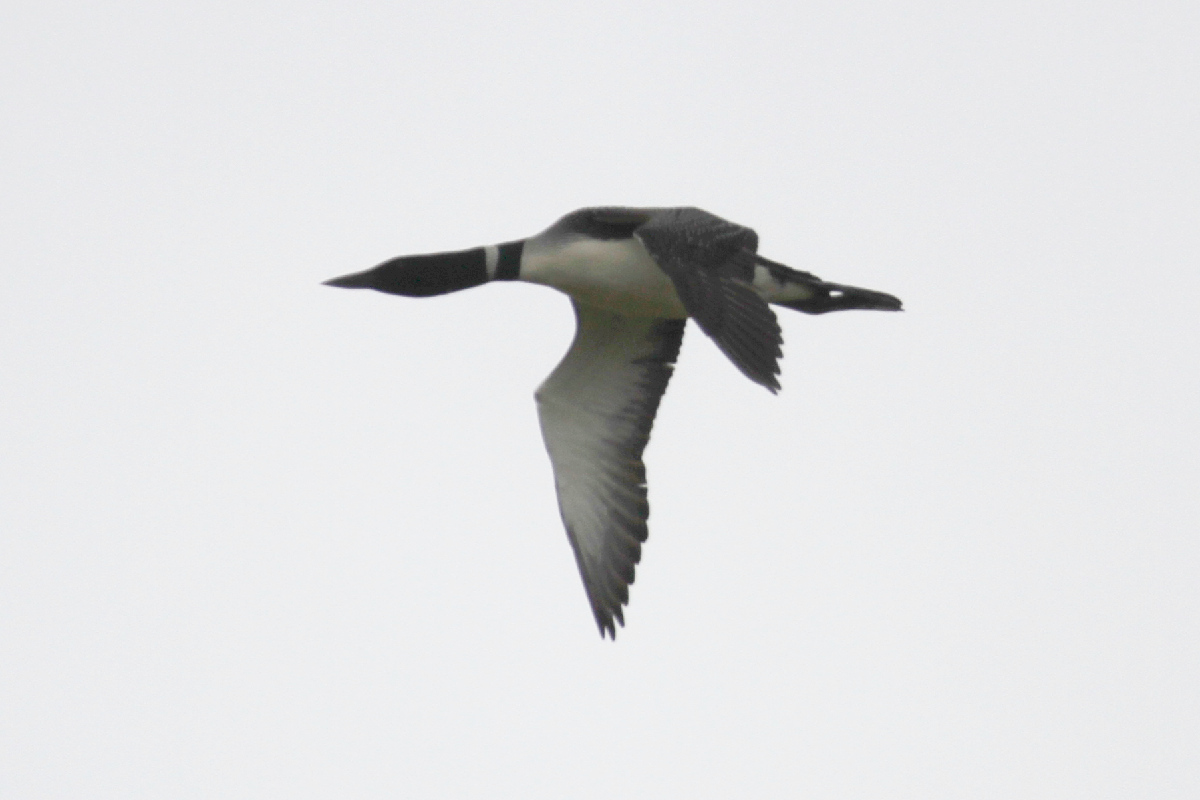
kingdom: Animalia
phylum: Chordata
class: Aves
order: Gaviiformes
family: Gaviidae
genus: Gavia
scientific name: Gavia immer
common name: Common loon
